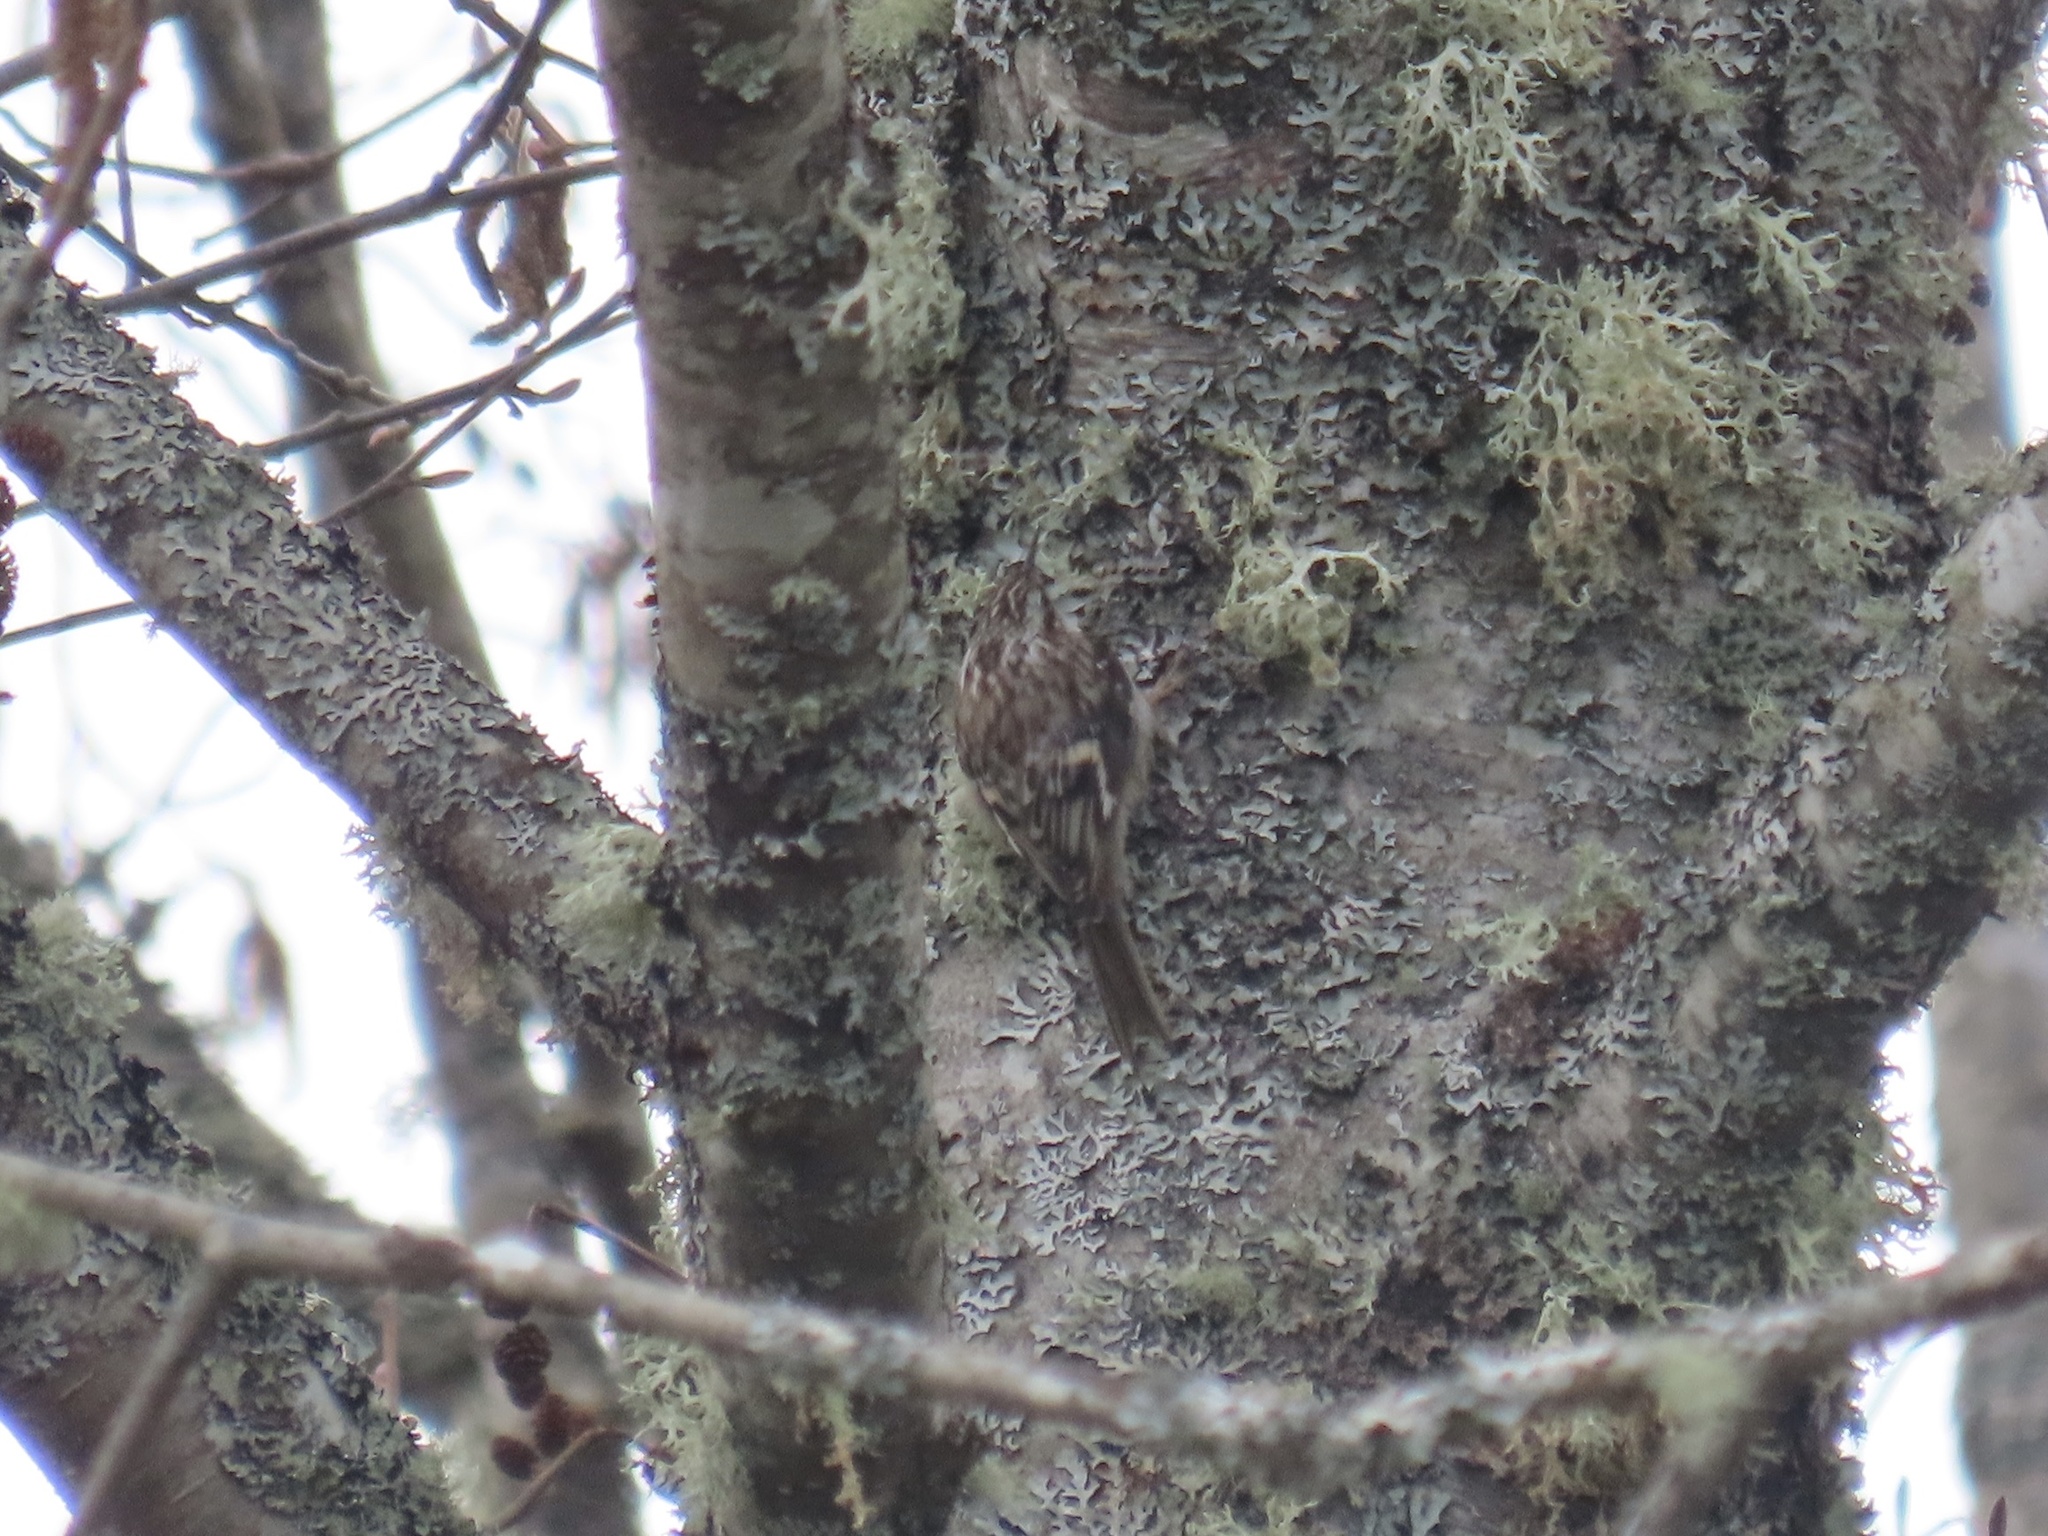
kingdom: Animalia
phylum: Chordata
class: Aves
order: Passeriformes
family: Certhiidae
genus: Certhia
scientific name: Certhia americana
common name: Brown creeper
